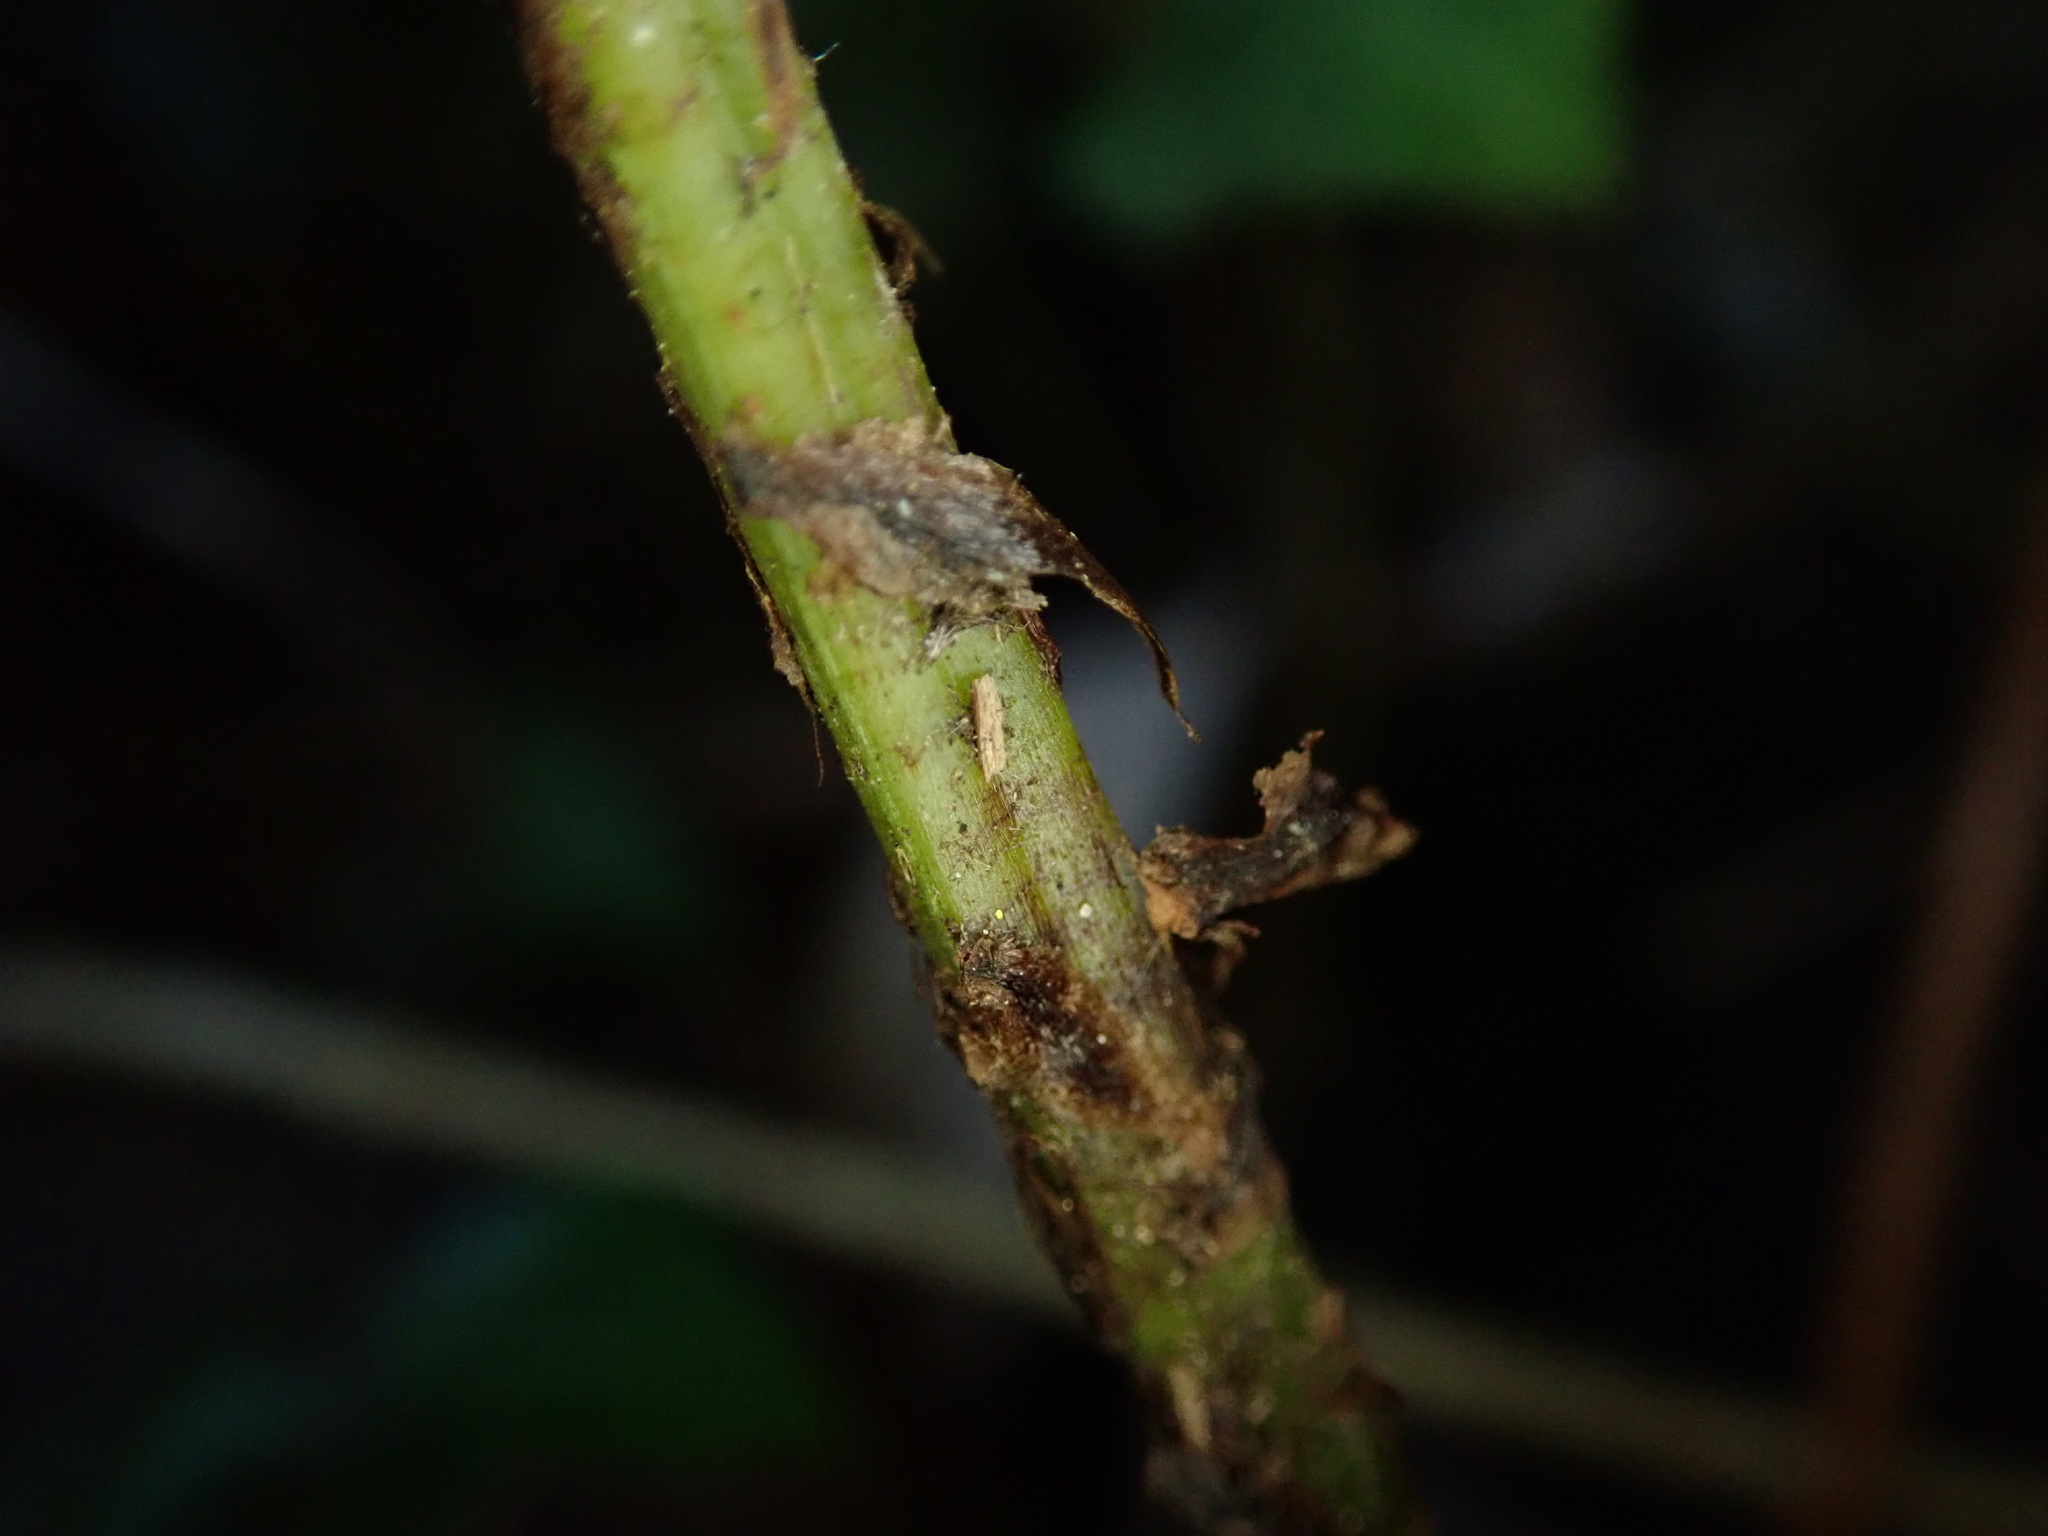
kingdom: Plantae
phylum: Tracheophyta
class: Polypodiopsida
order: Polypodiales
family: Dryopteridaceae
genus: Dryopteris
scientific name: Dryopteris dilatata
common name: Broad buckler-fern
